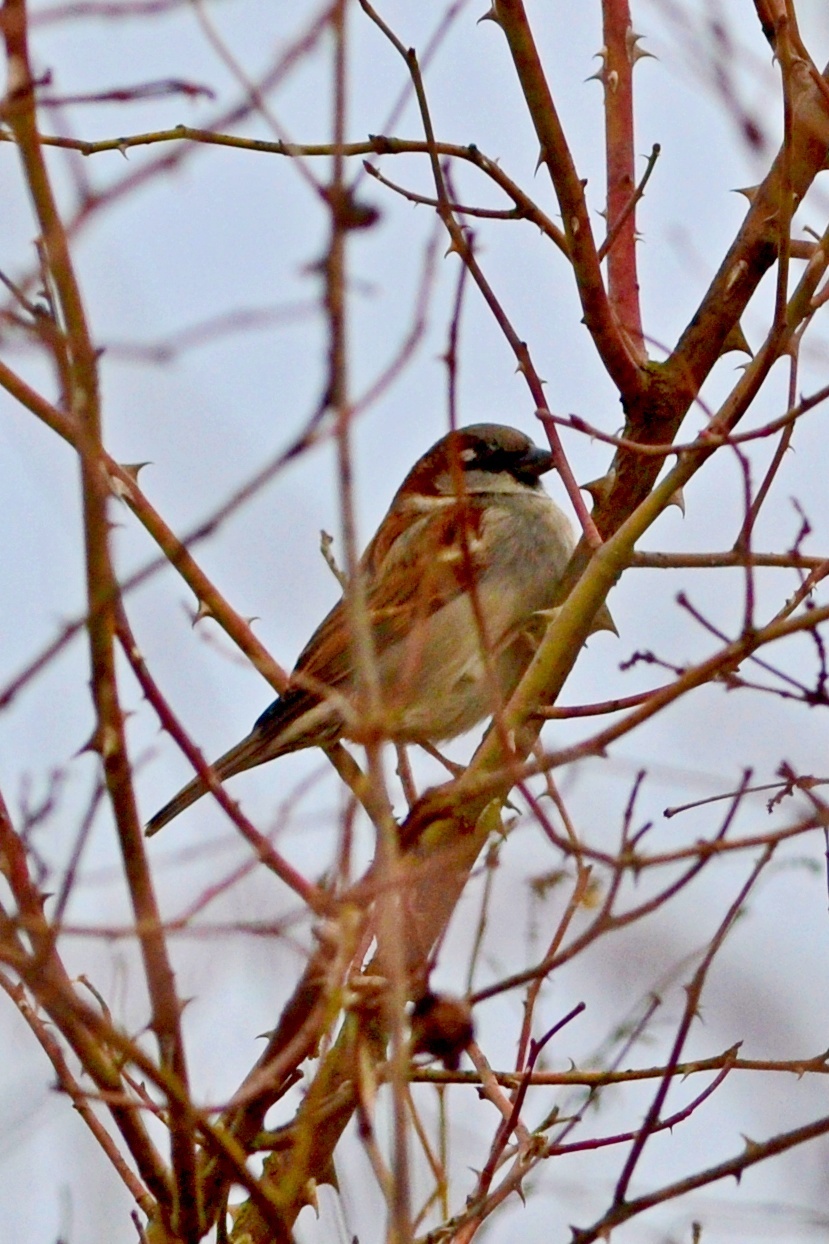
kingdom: Animalia
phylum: Chordata
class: Aves
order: Passeriformes
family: Passeridae
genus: Passer
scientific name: Passer domesticus
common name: House sparrow
